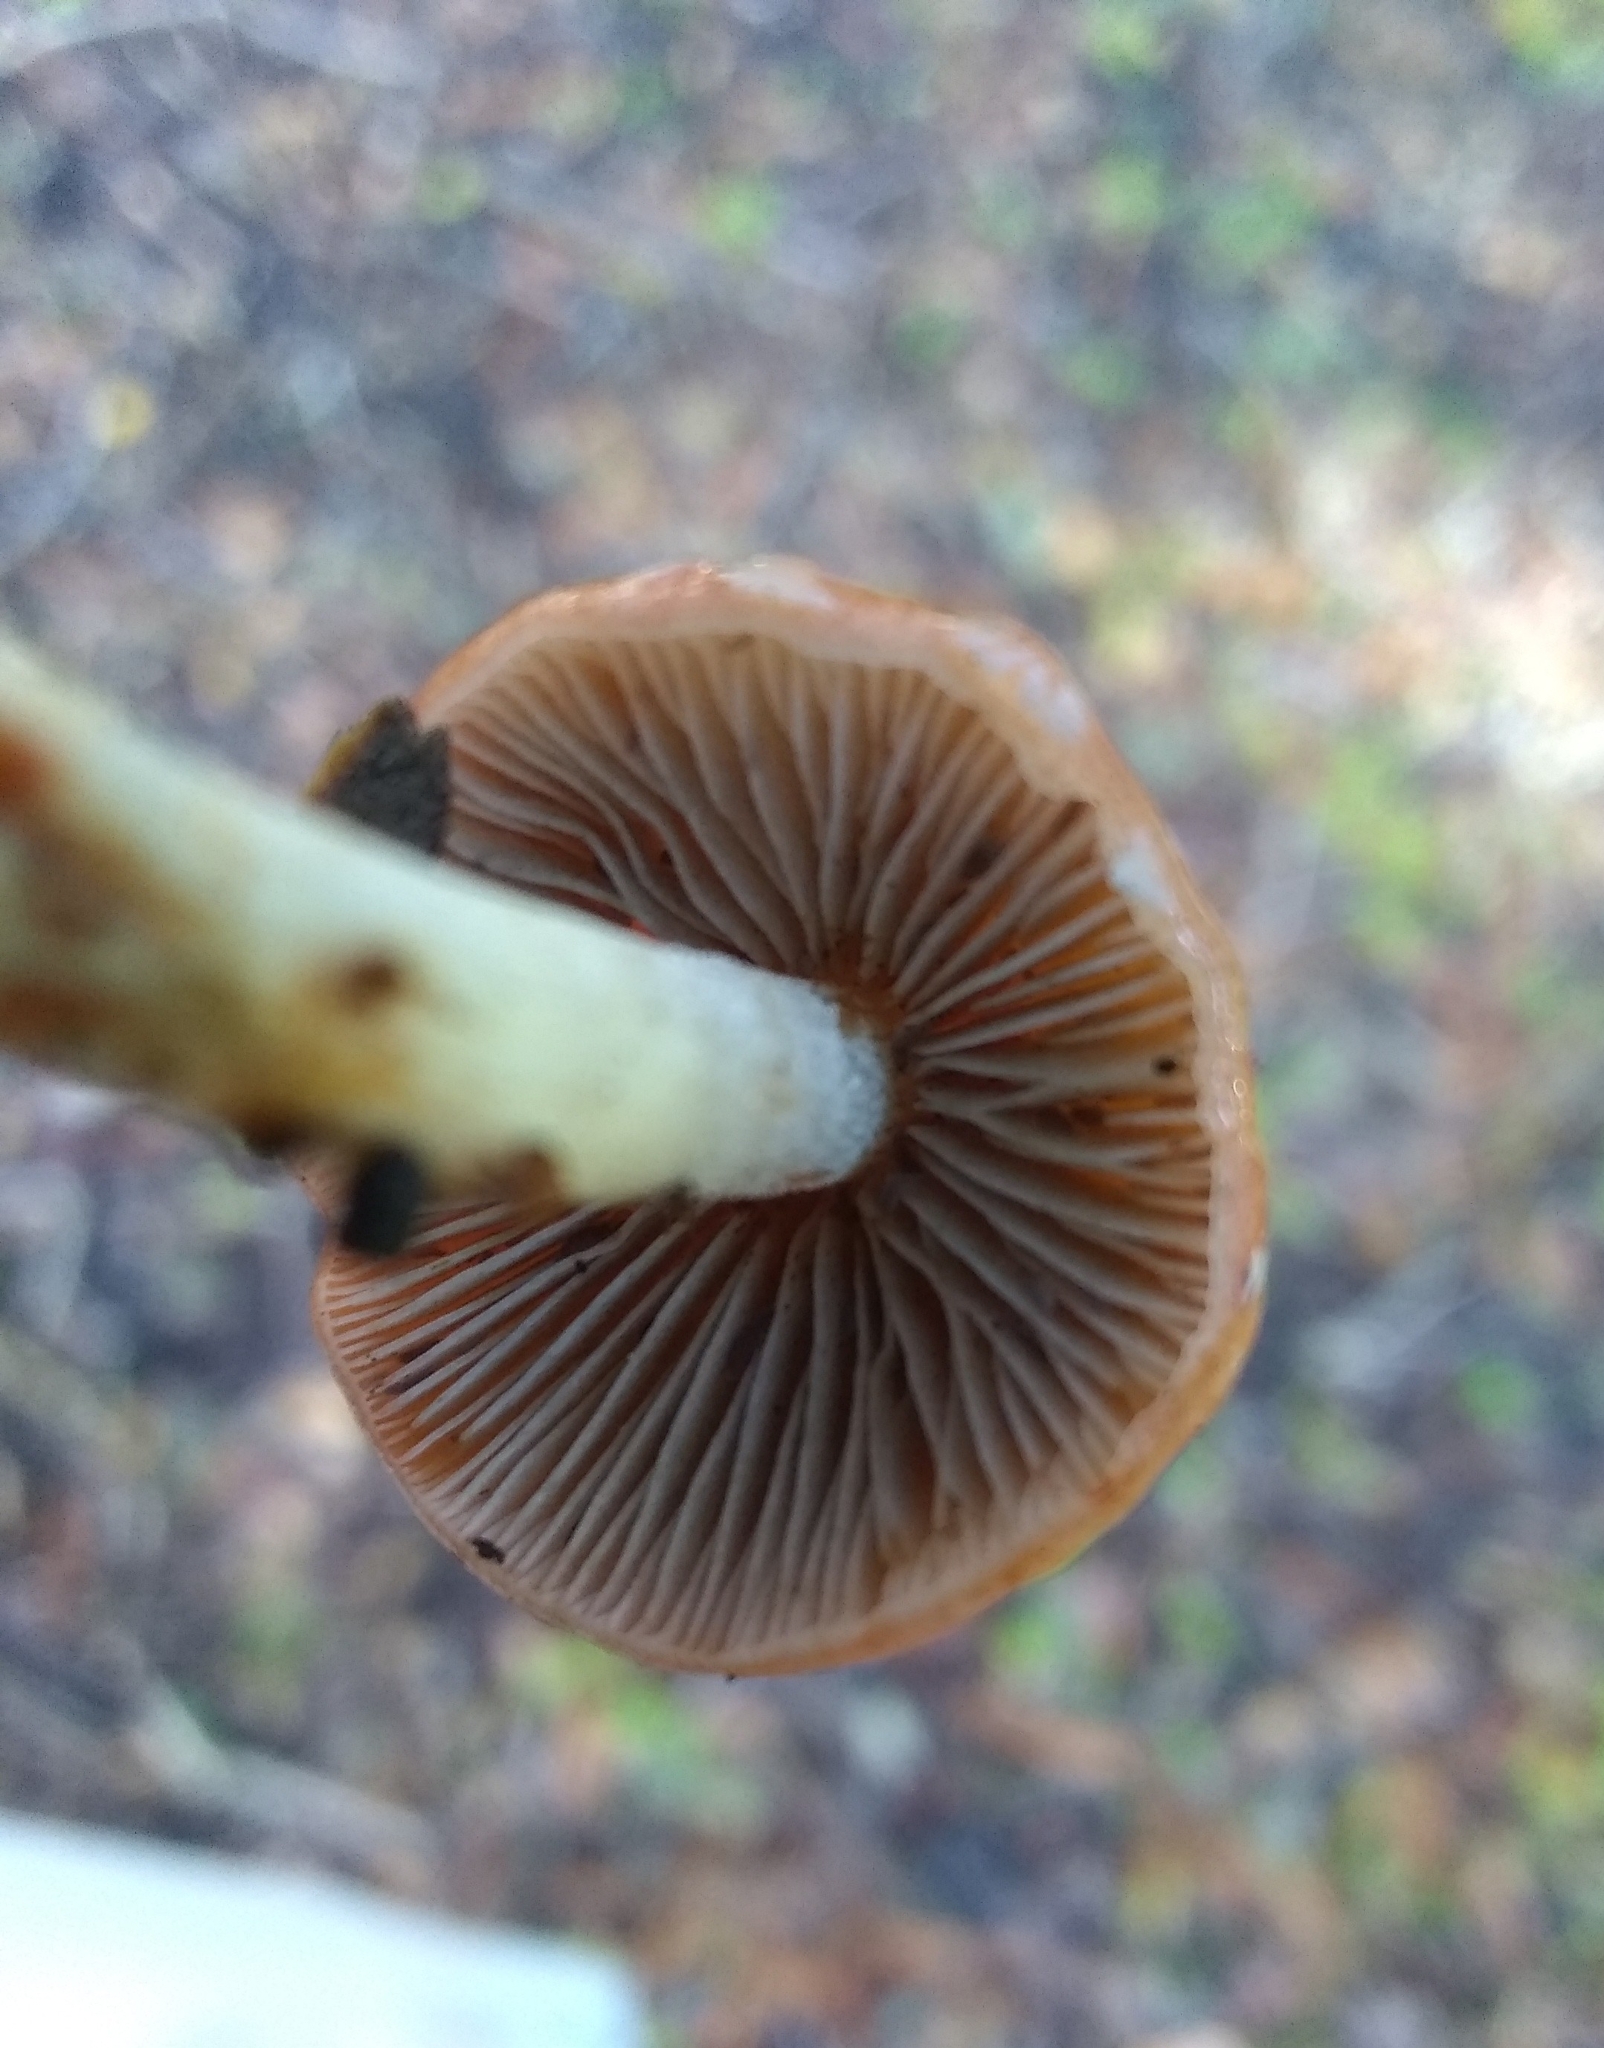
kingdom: Fungi
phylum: Basidiomycota
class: Agaricomycetes
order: Agaricales
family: Strophariaceae
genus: Leratiomyces
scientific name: Leratiomyces ceres
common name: Redlead roundhead
